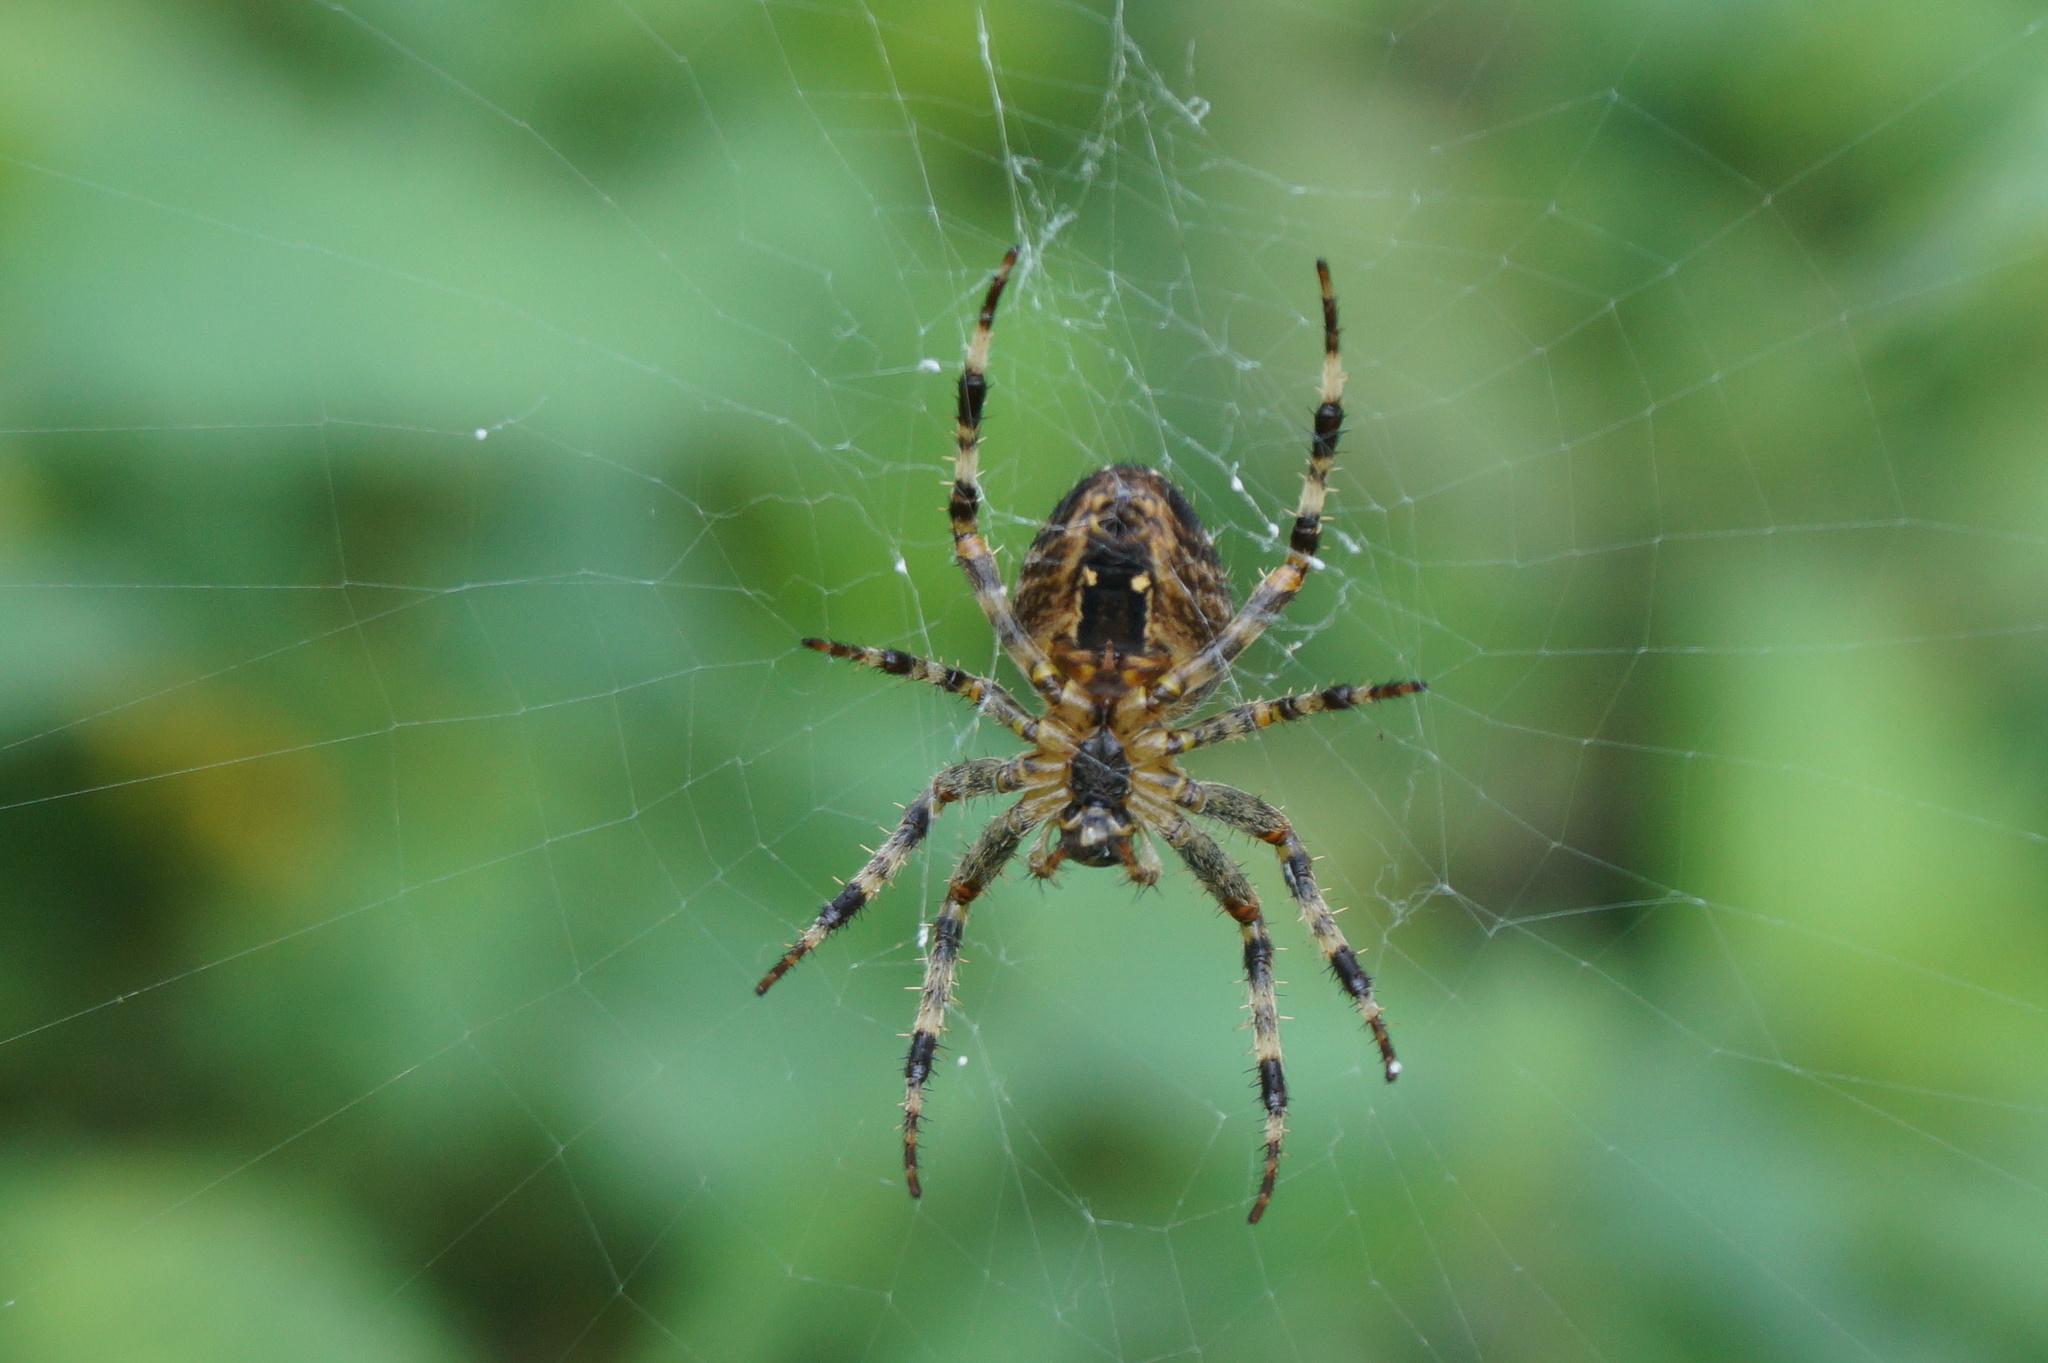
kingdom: Animalia
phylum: Arthropoda
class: Arachnida
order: Araneae
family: Araneidae
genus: Araneus
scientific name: Araneus diadematus
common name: Cross orbweaver
